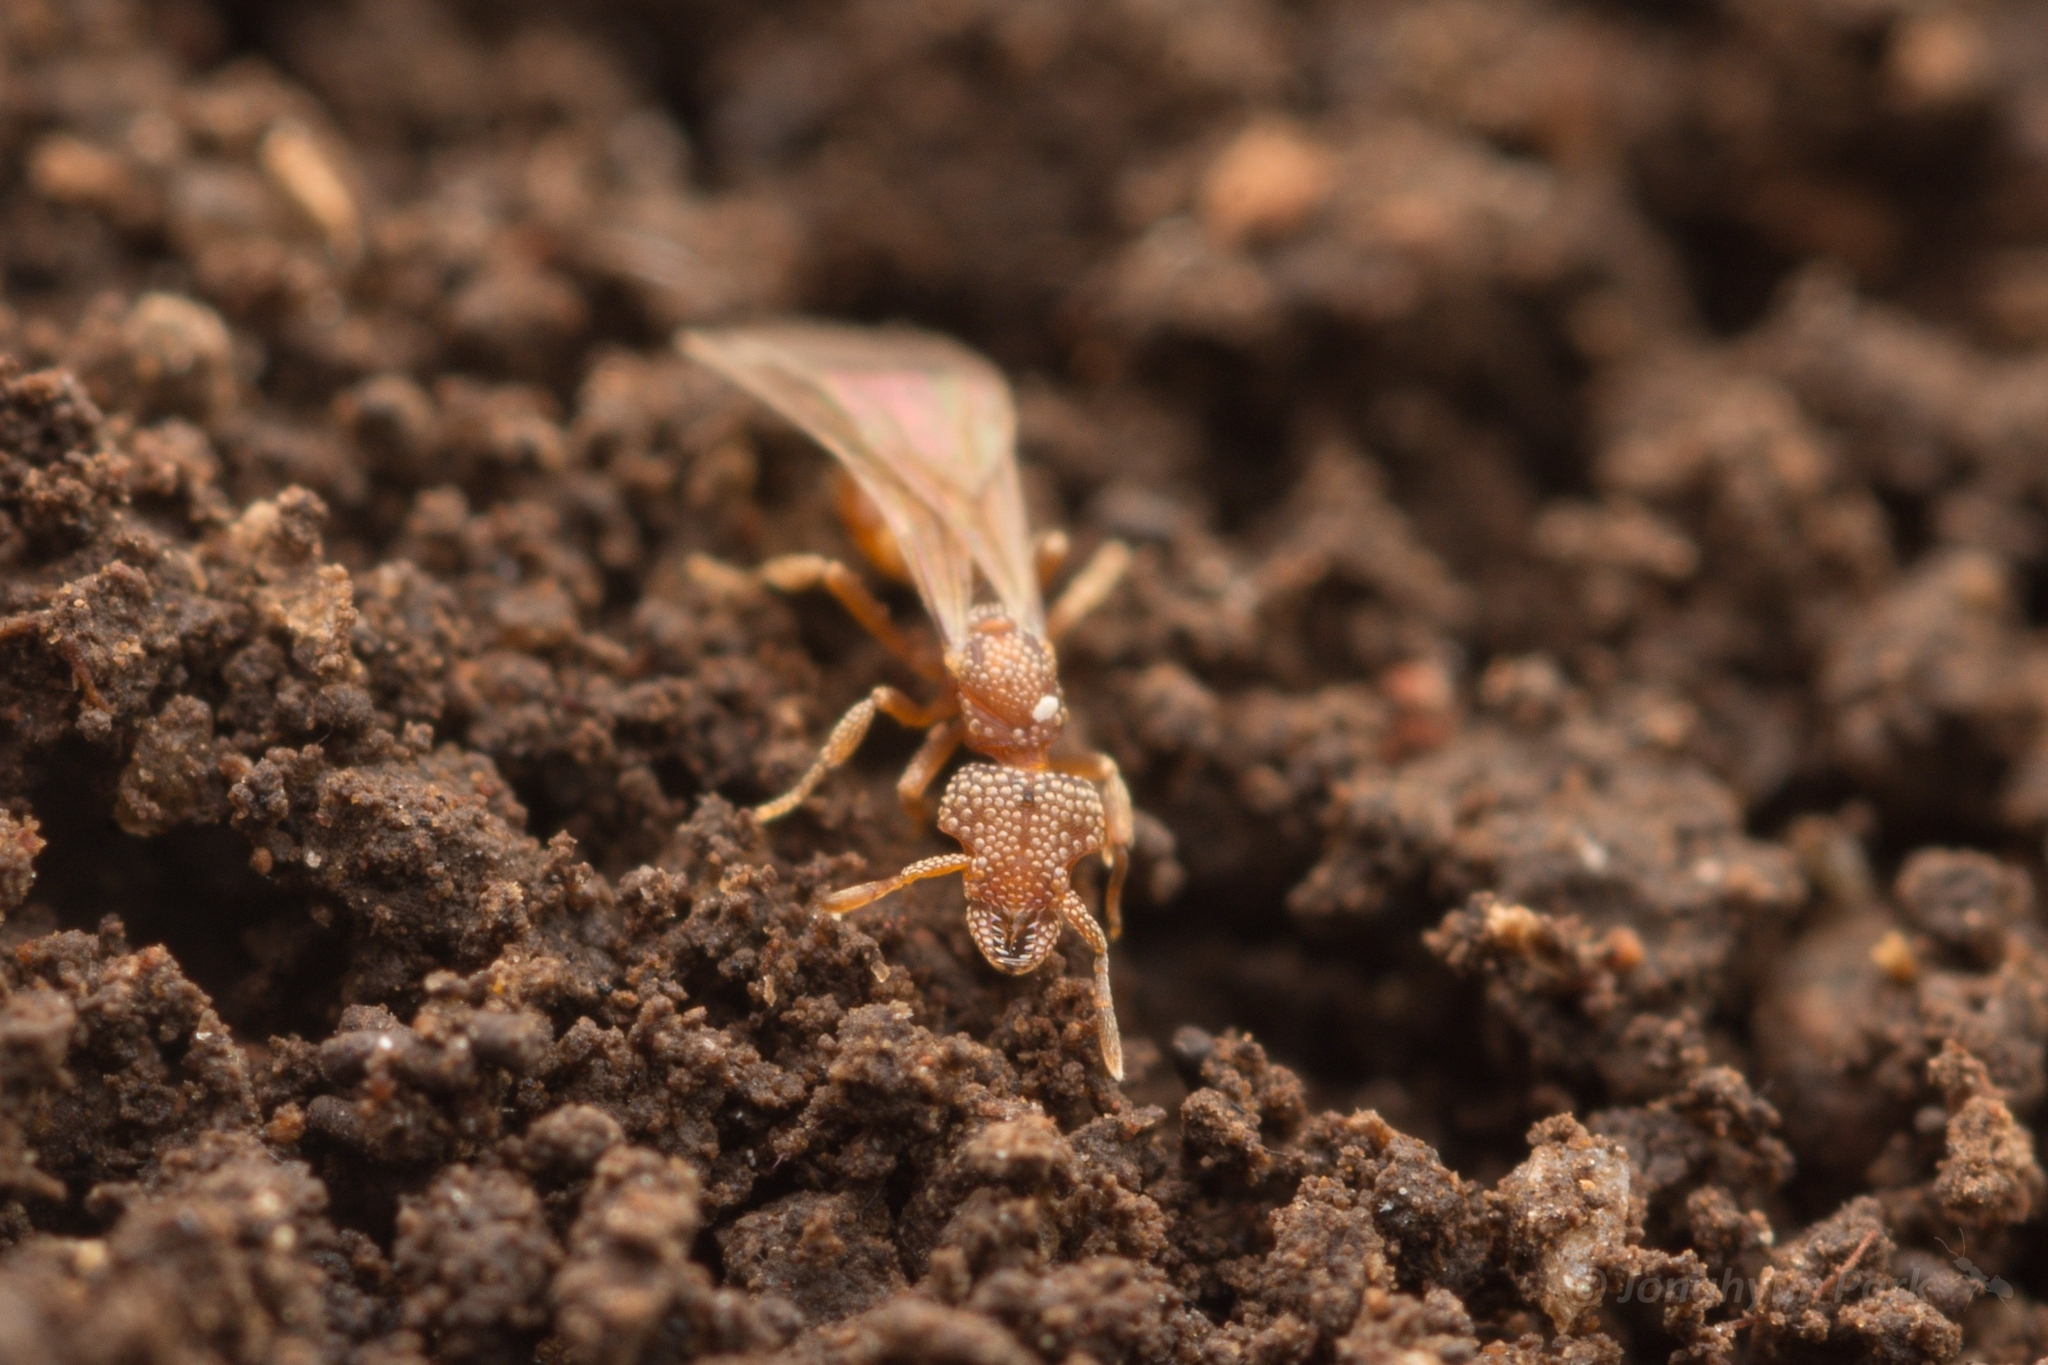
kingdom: Animalia
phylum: Arthropoda
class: Insecta
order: Hymenoptera
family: Formicidae
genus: Pyramica
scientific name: Pyramica hexamera
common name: Ant
